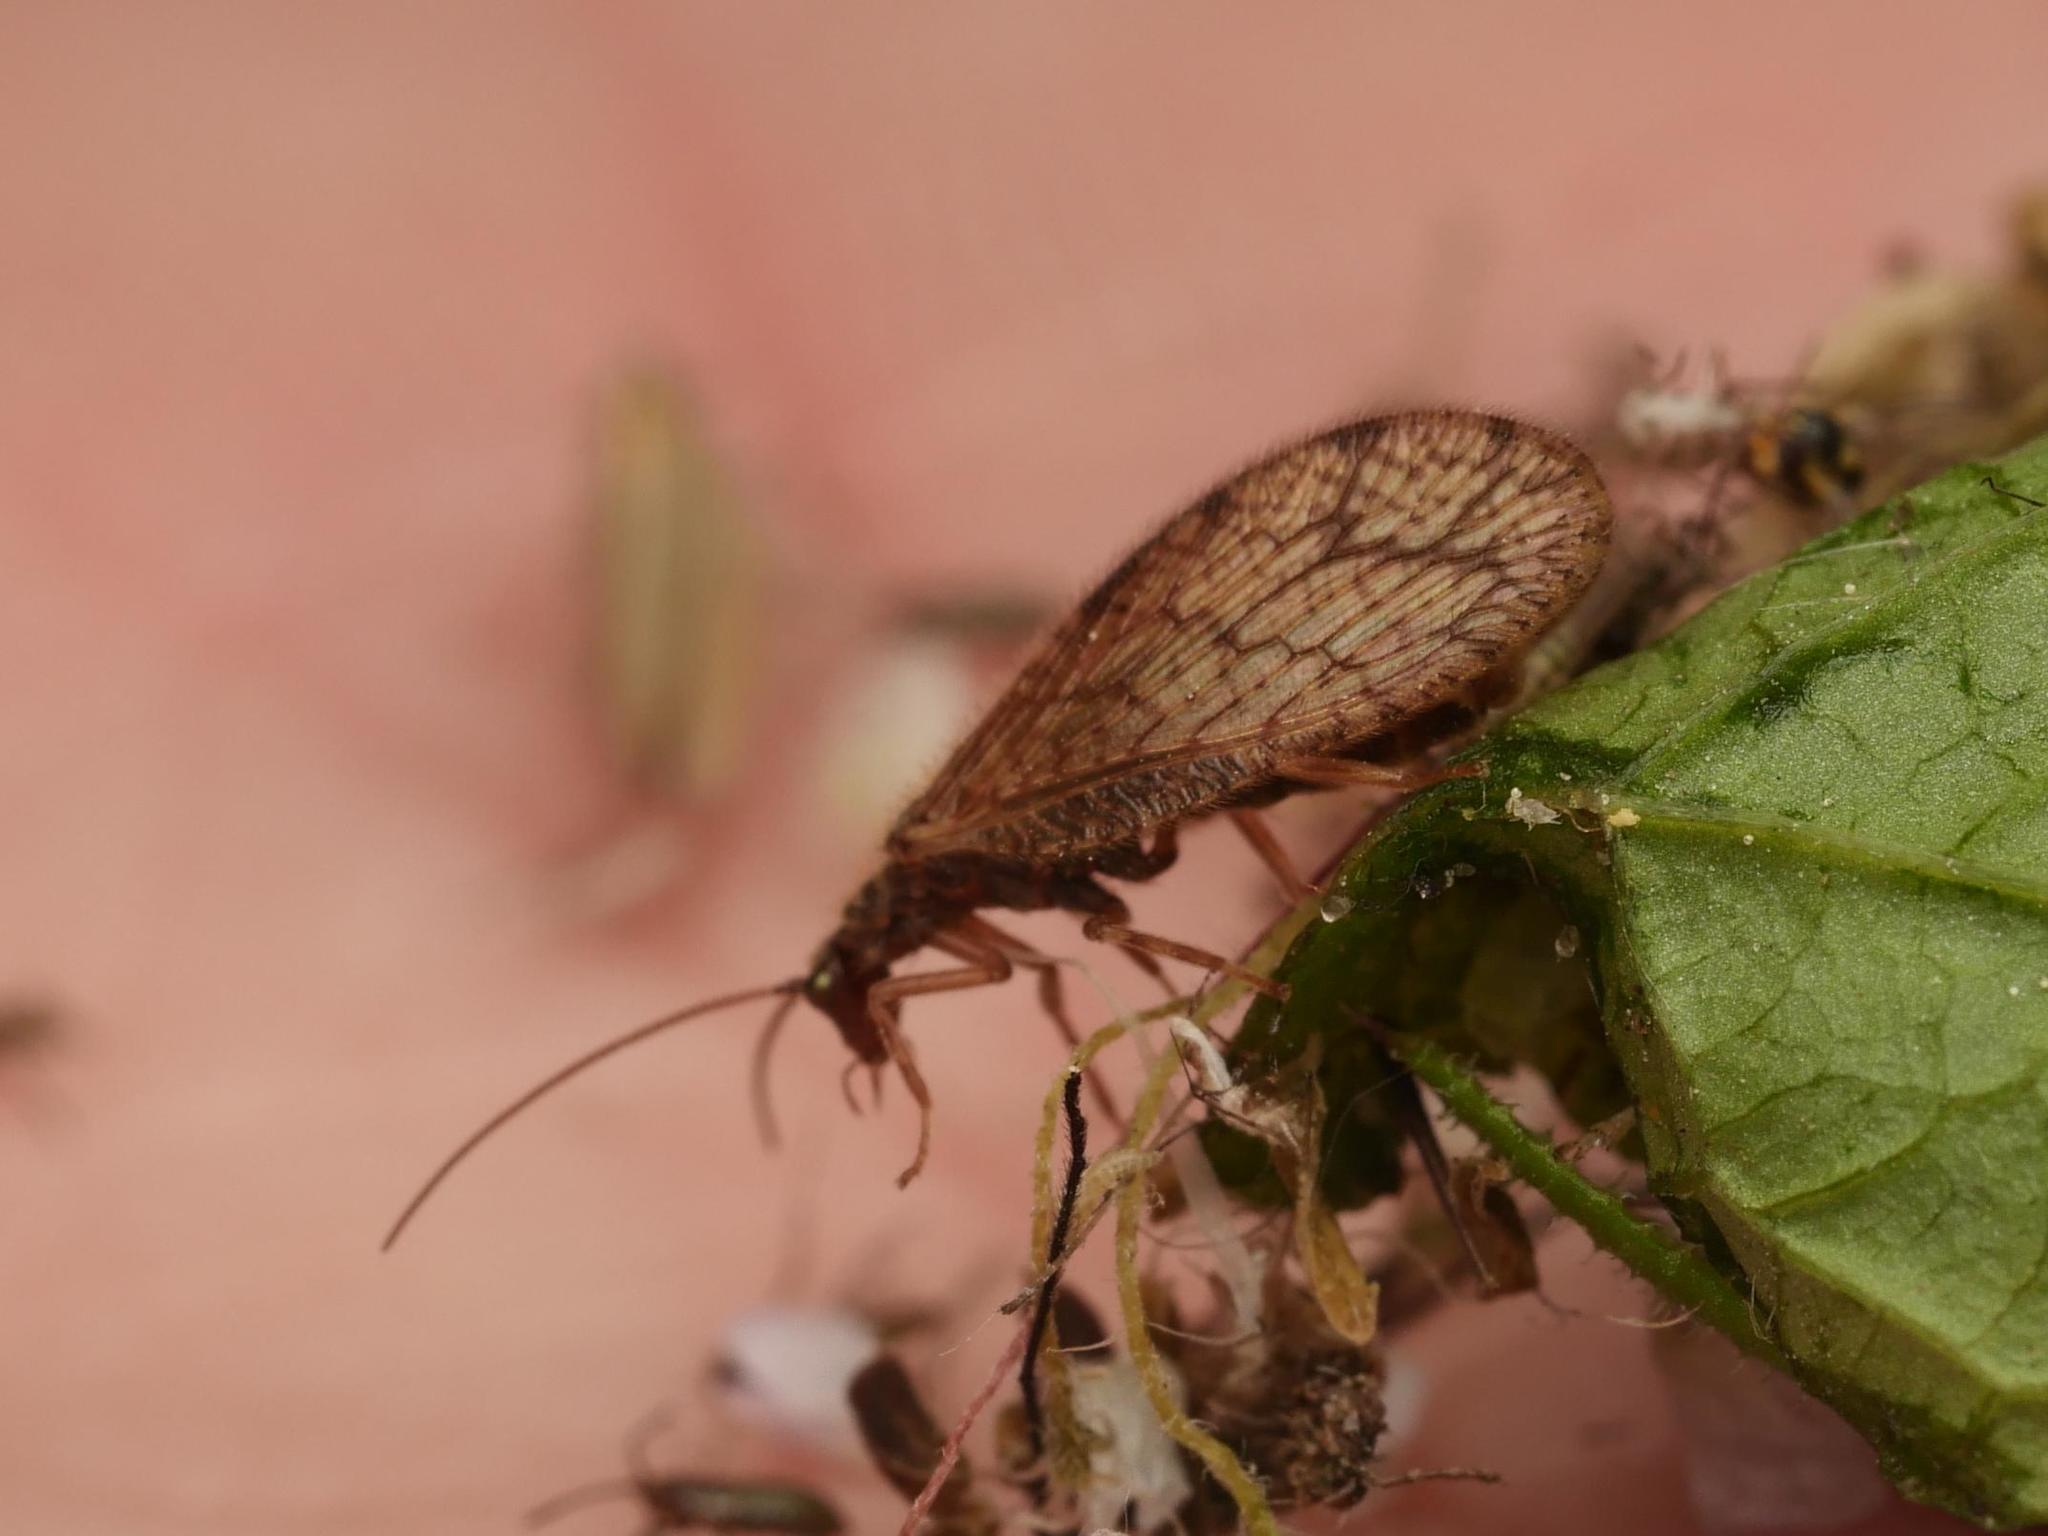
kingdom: Animalia
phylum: Arthropoda
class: Insecta
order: Neuroptera
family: Hemerobiidae
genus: Micromus
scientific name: Micromus angulatus
